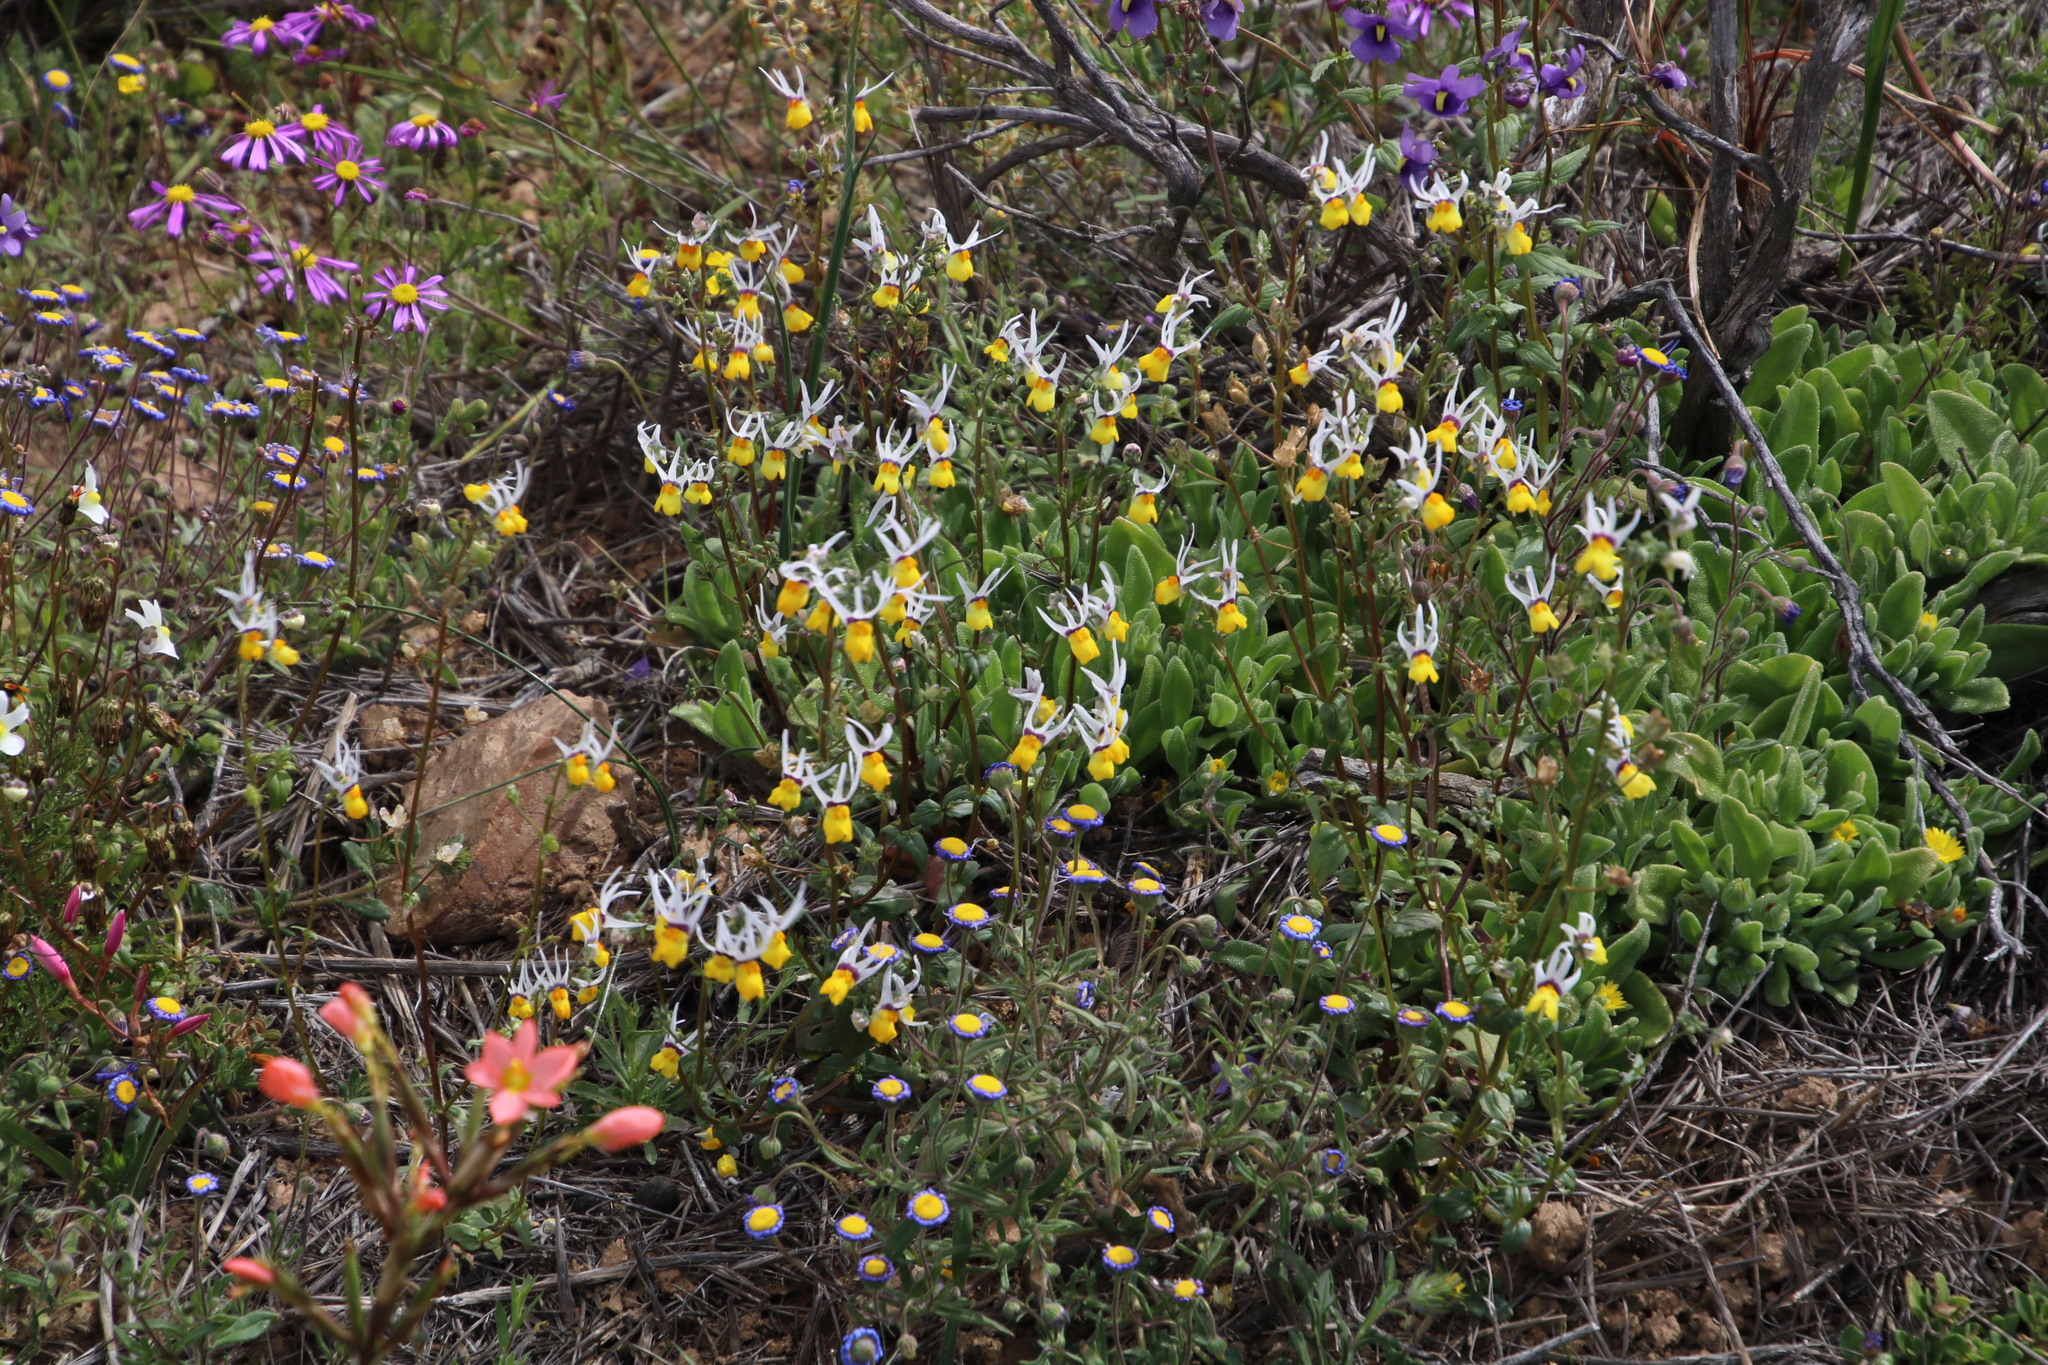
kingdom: Plantae
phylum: Tracheophyta
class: Magnoliopsida
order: Lamiales
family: Scrophulariaceae
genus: Nemesia
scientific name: Nemesia cheiranthus
